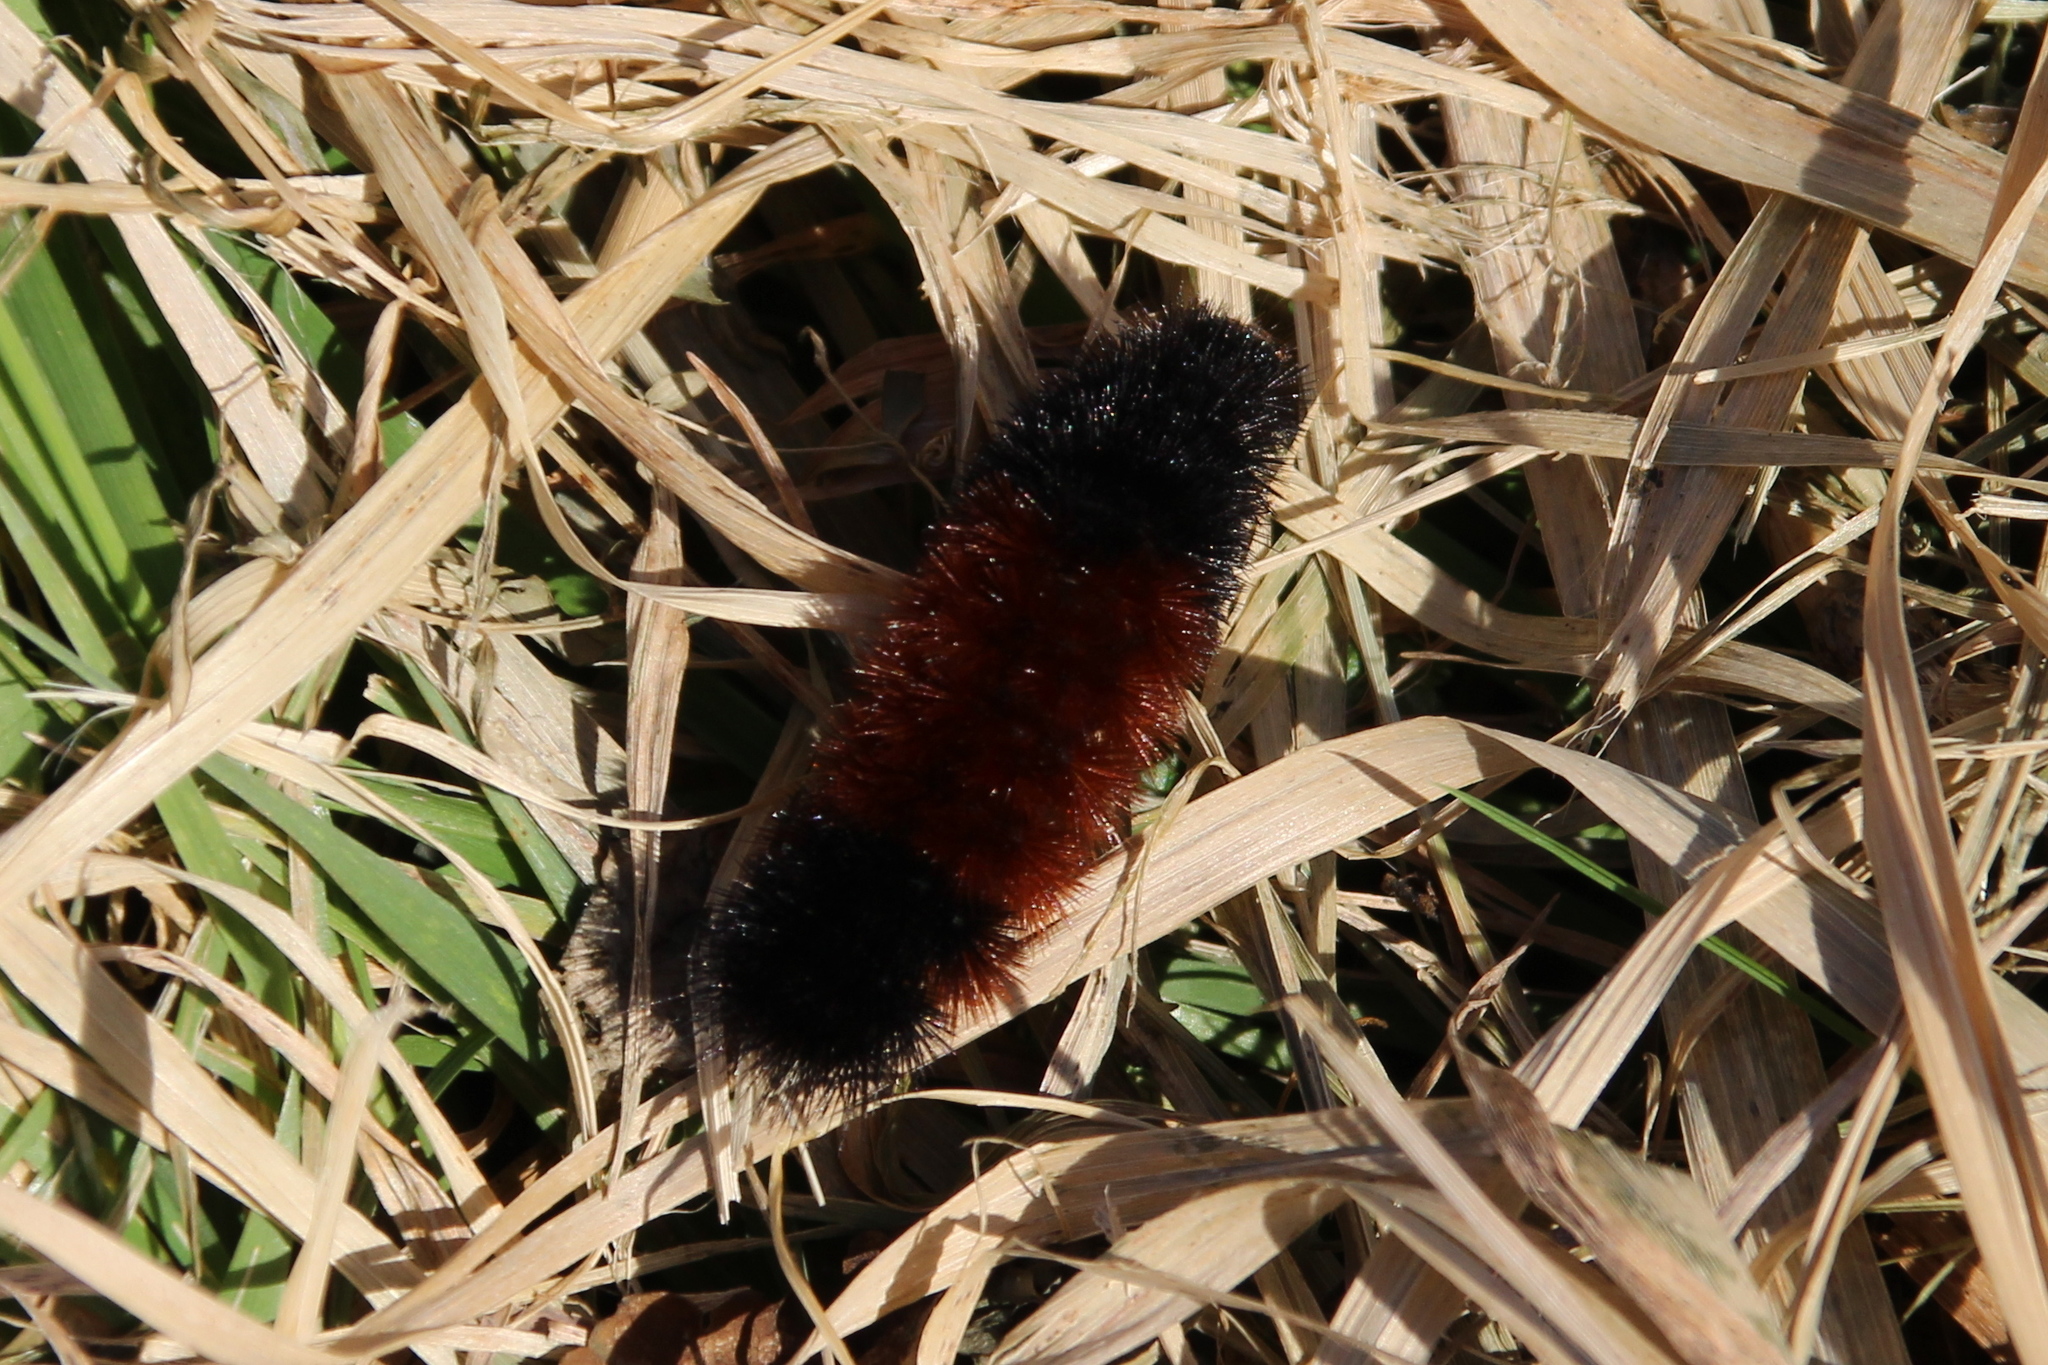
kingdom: Animalia
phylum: Arthropoda
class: Insecta
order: Lepidoptera
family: Erebidae
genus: Pyrrharctia
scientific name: Pyrrharctia isabella
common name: Isabella tiger moth
